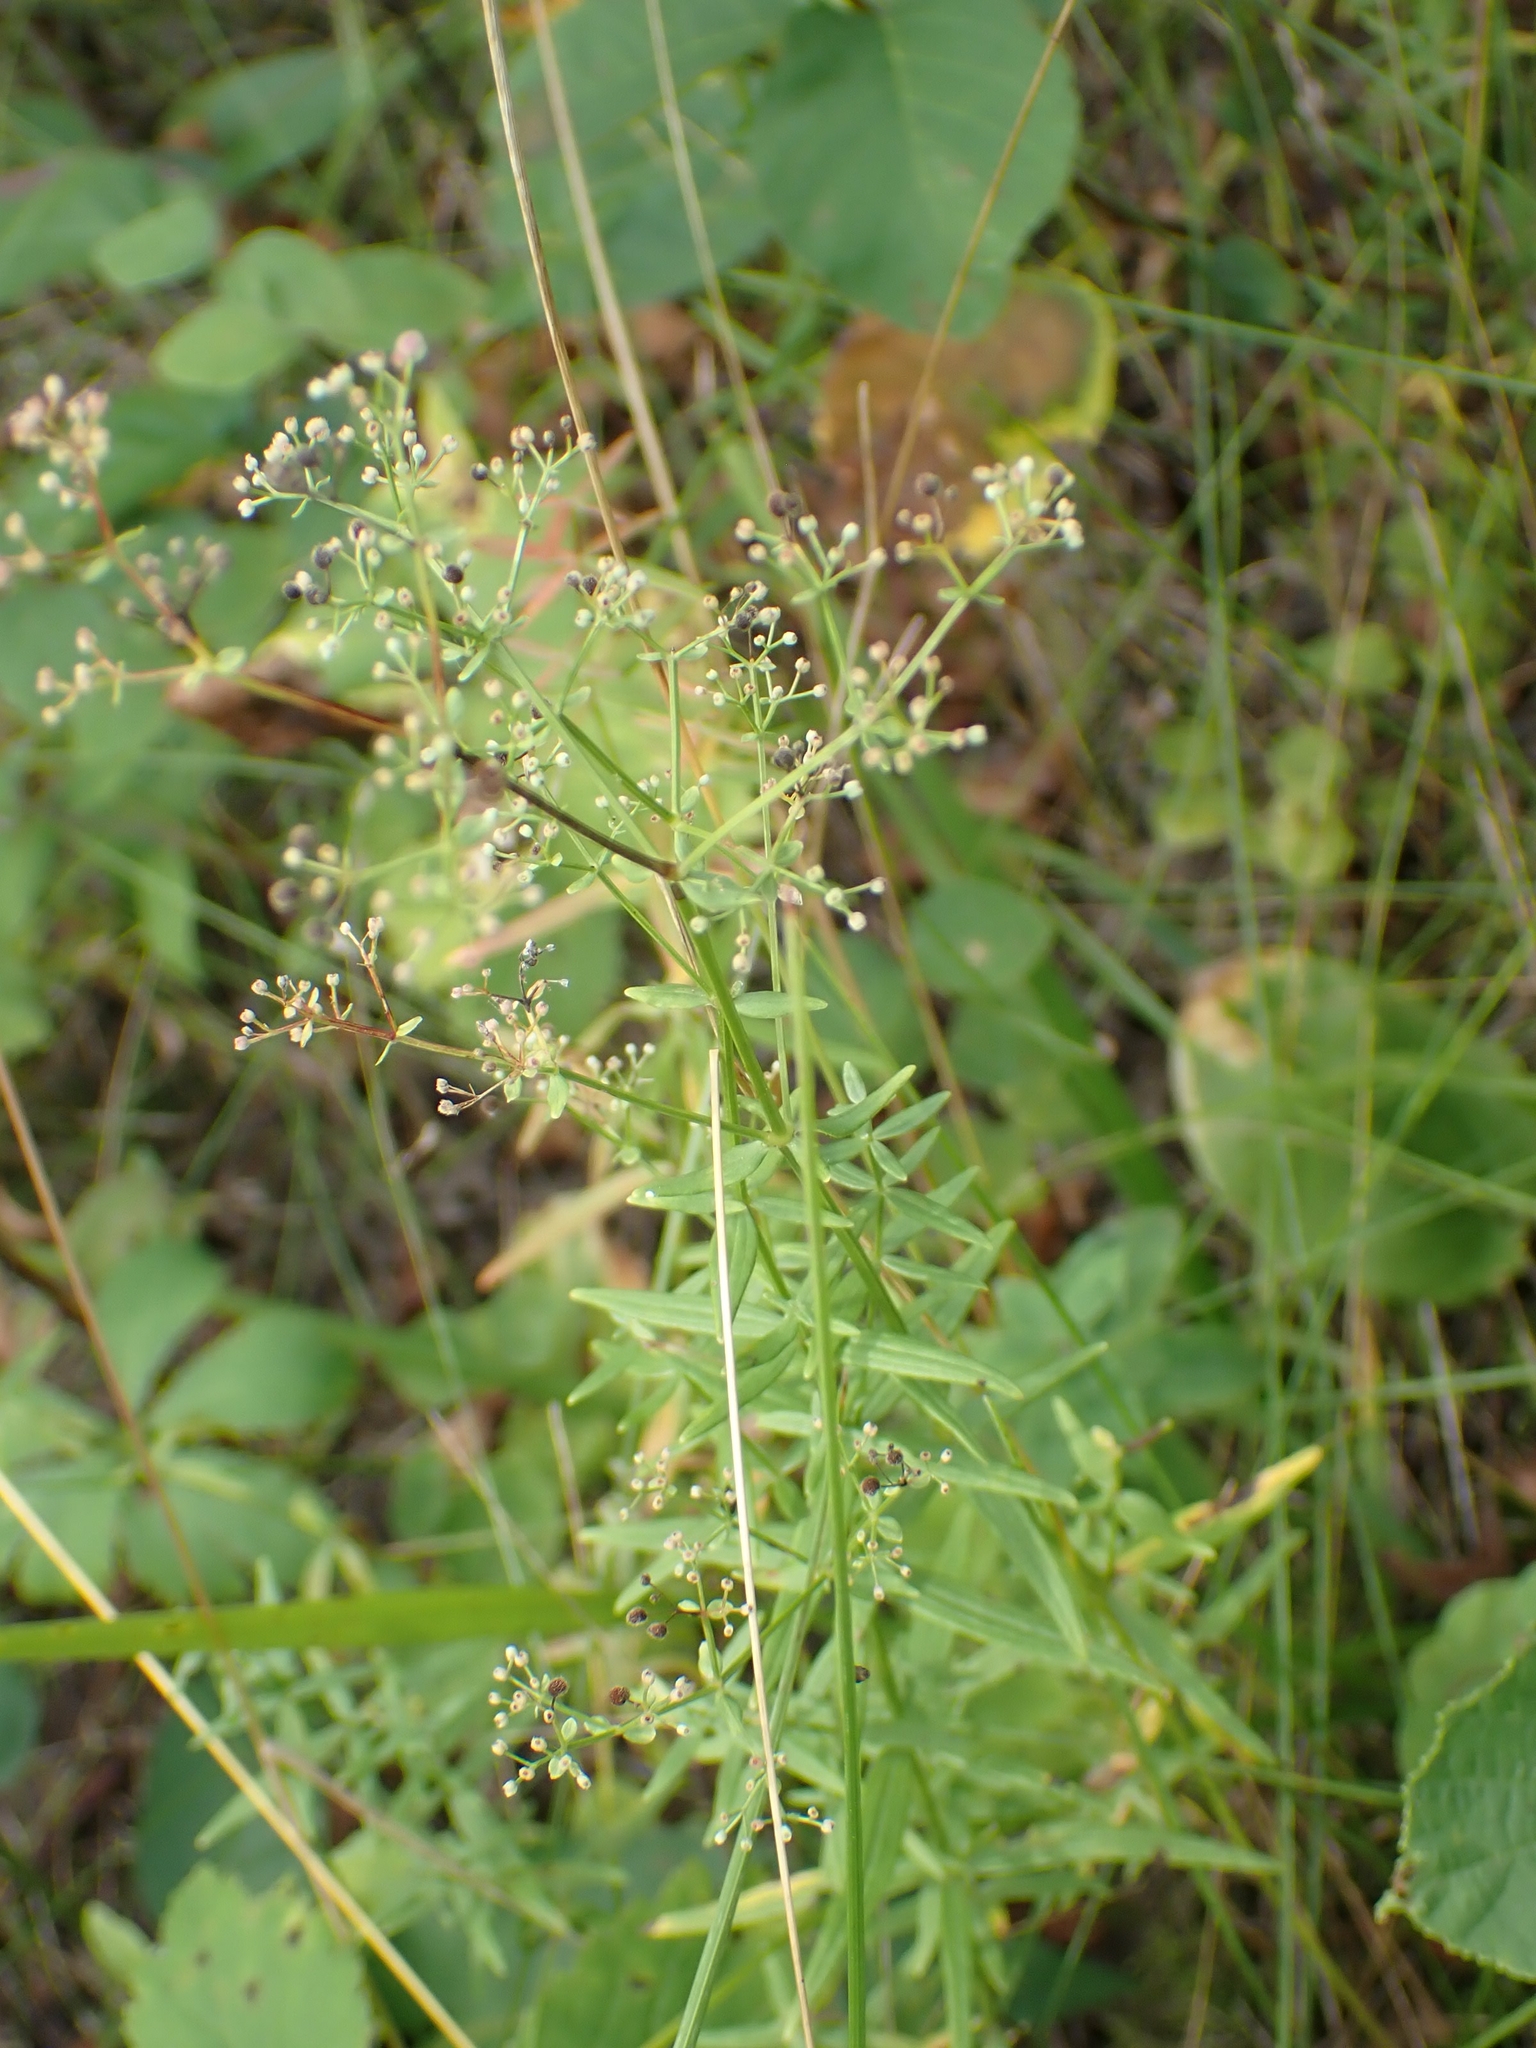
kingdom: Plantae
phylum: Tracheophyta
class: Magnoliopsida
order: Gentianales
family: Rubiaceae
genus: Galium
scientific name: Galium boreale
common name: Northern bedstraw
